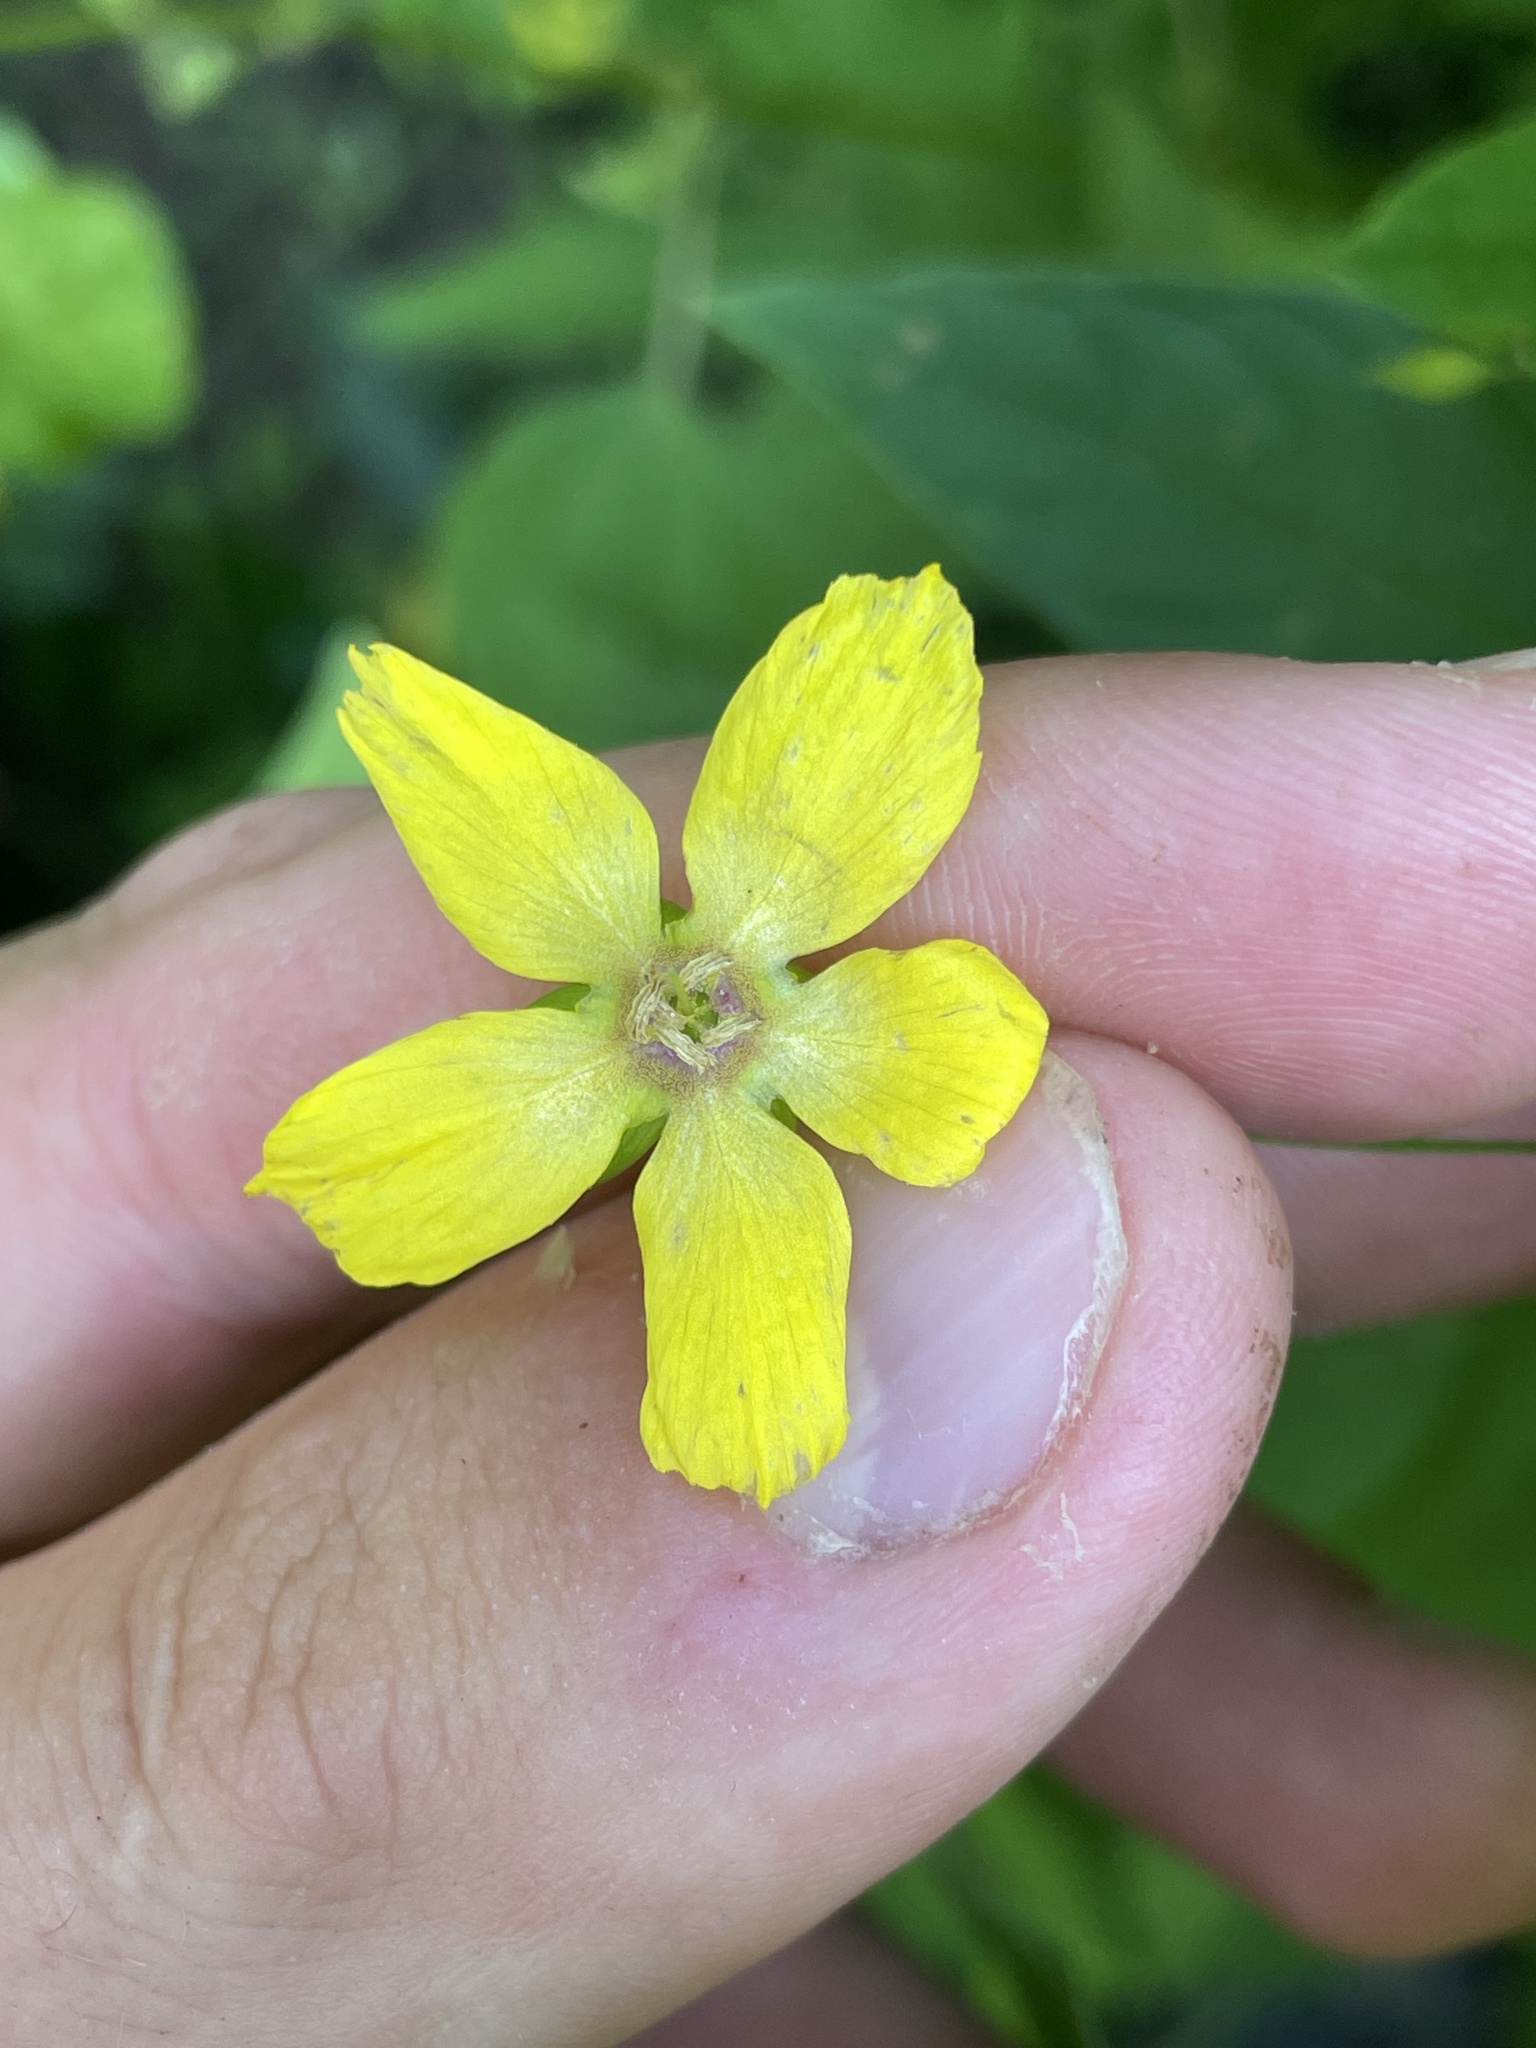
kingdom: Plantae
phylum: Tracheophyta
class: Magnoliopsida
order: Ericales
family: Primulaceae
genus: Lysimachia
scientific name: Lysimachia ciliata
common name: Fringed loosestrife
